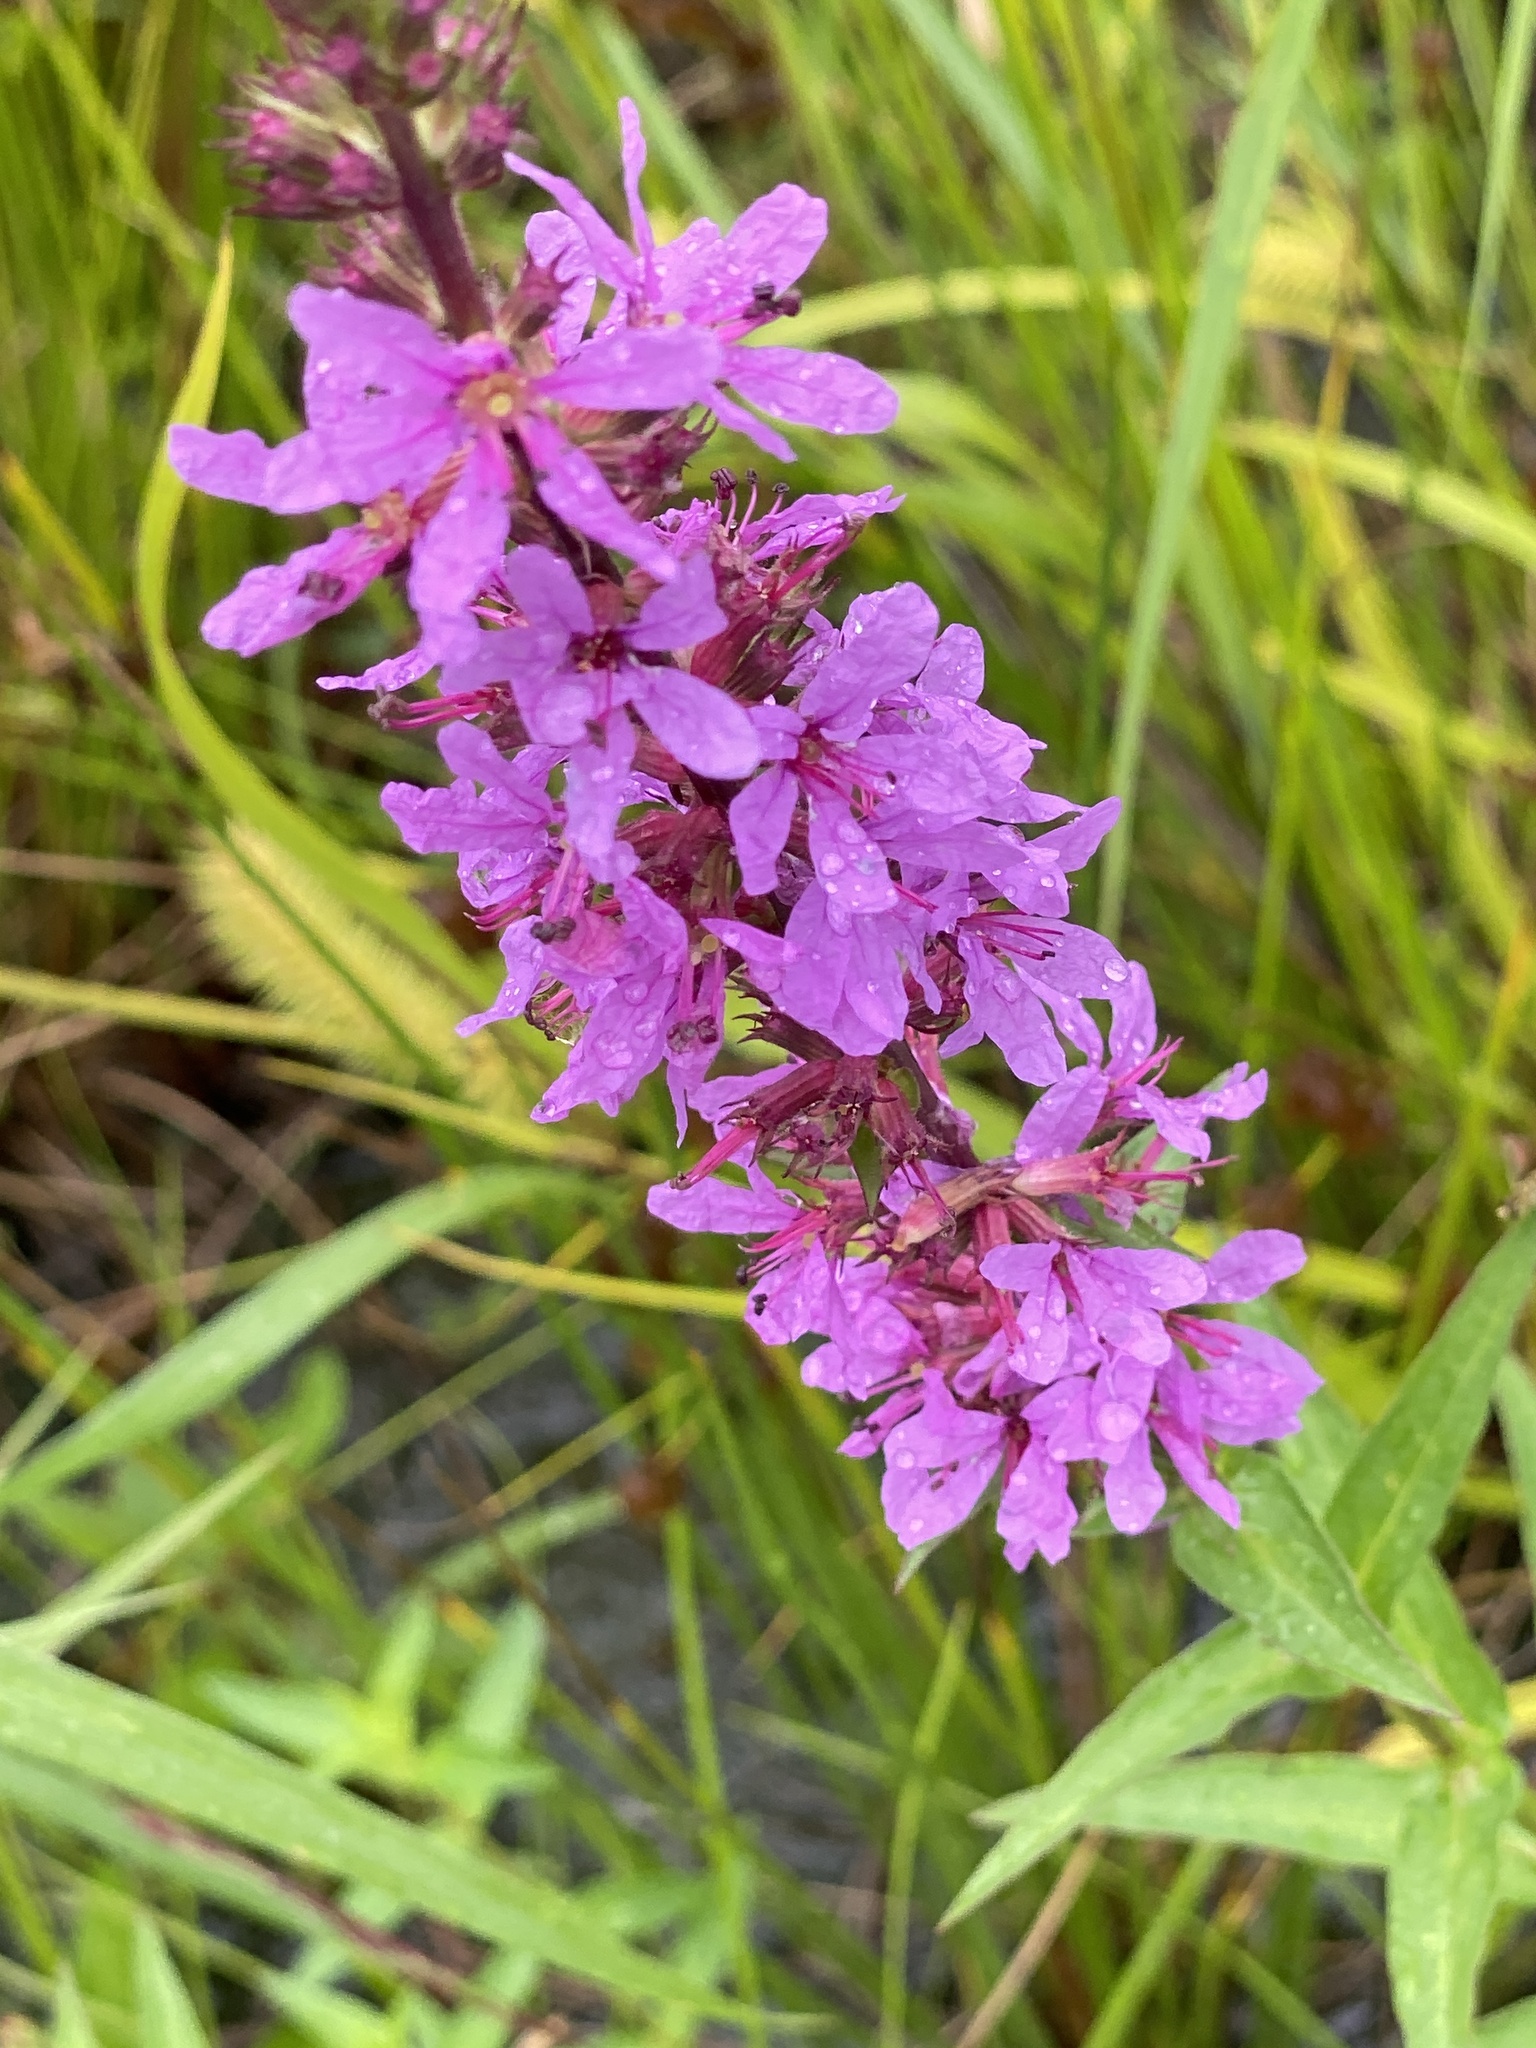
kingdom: Plantae
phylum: Tracheophyta
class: Magnoliopsida
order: Myrtales
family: Lythraceae
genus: Lythrum
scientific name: Lythrum salicaria
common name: Purple loosestrife
